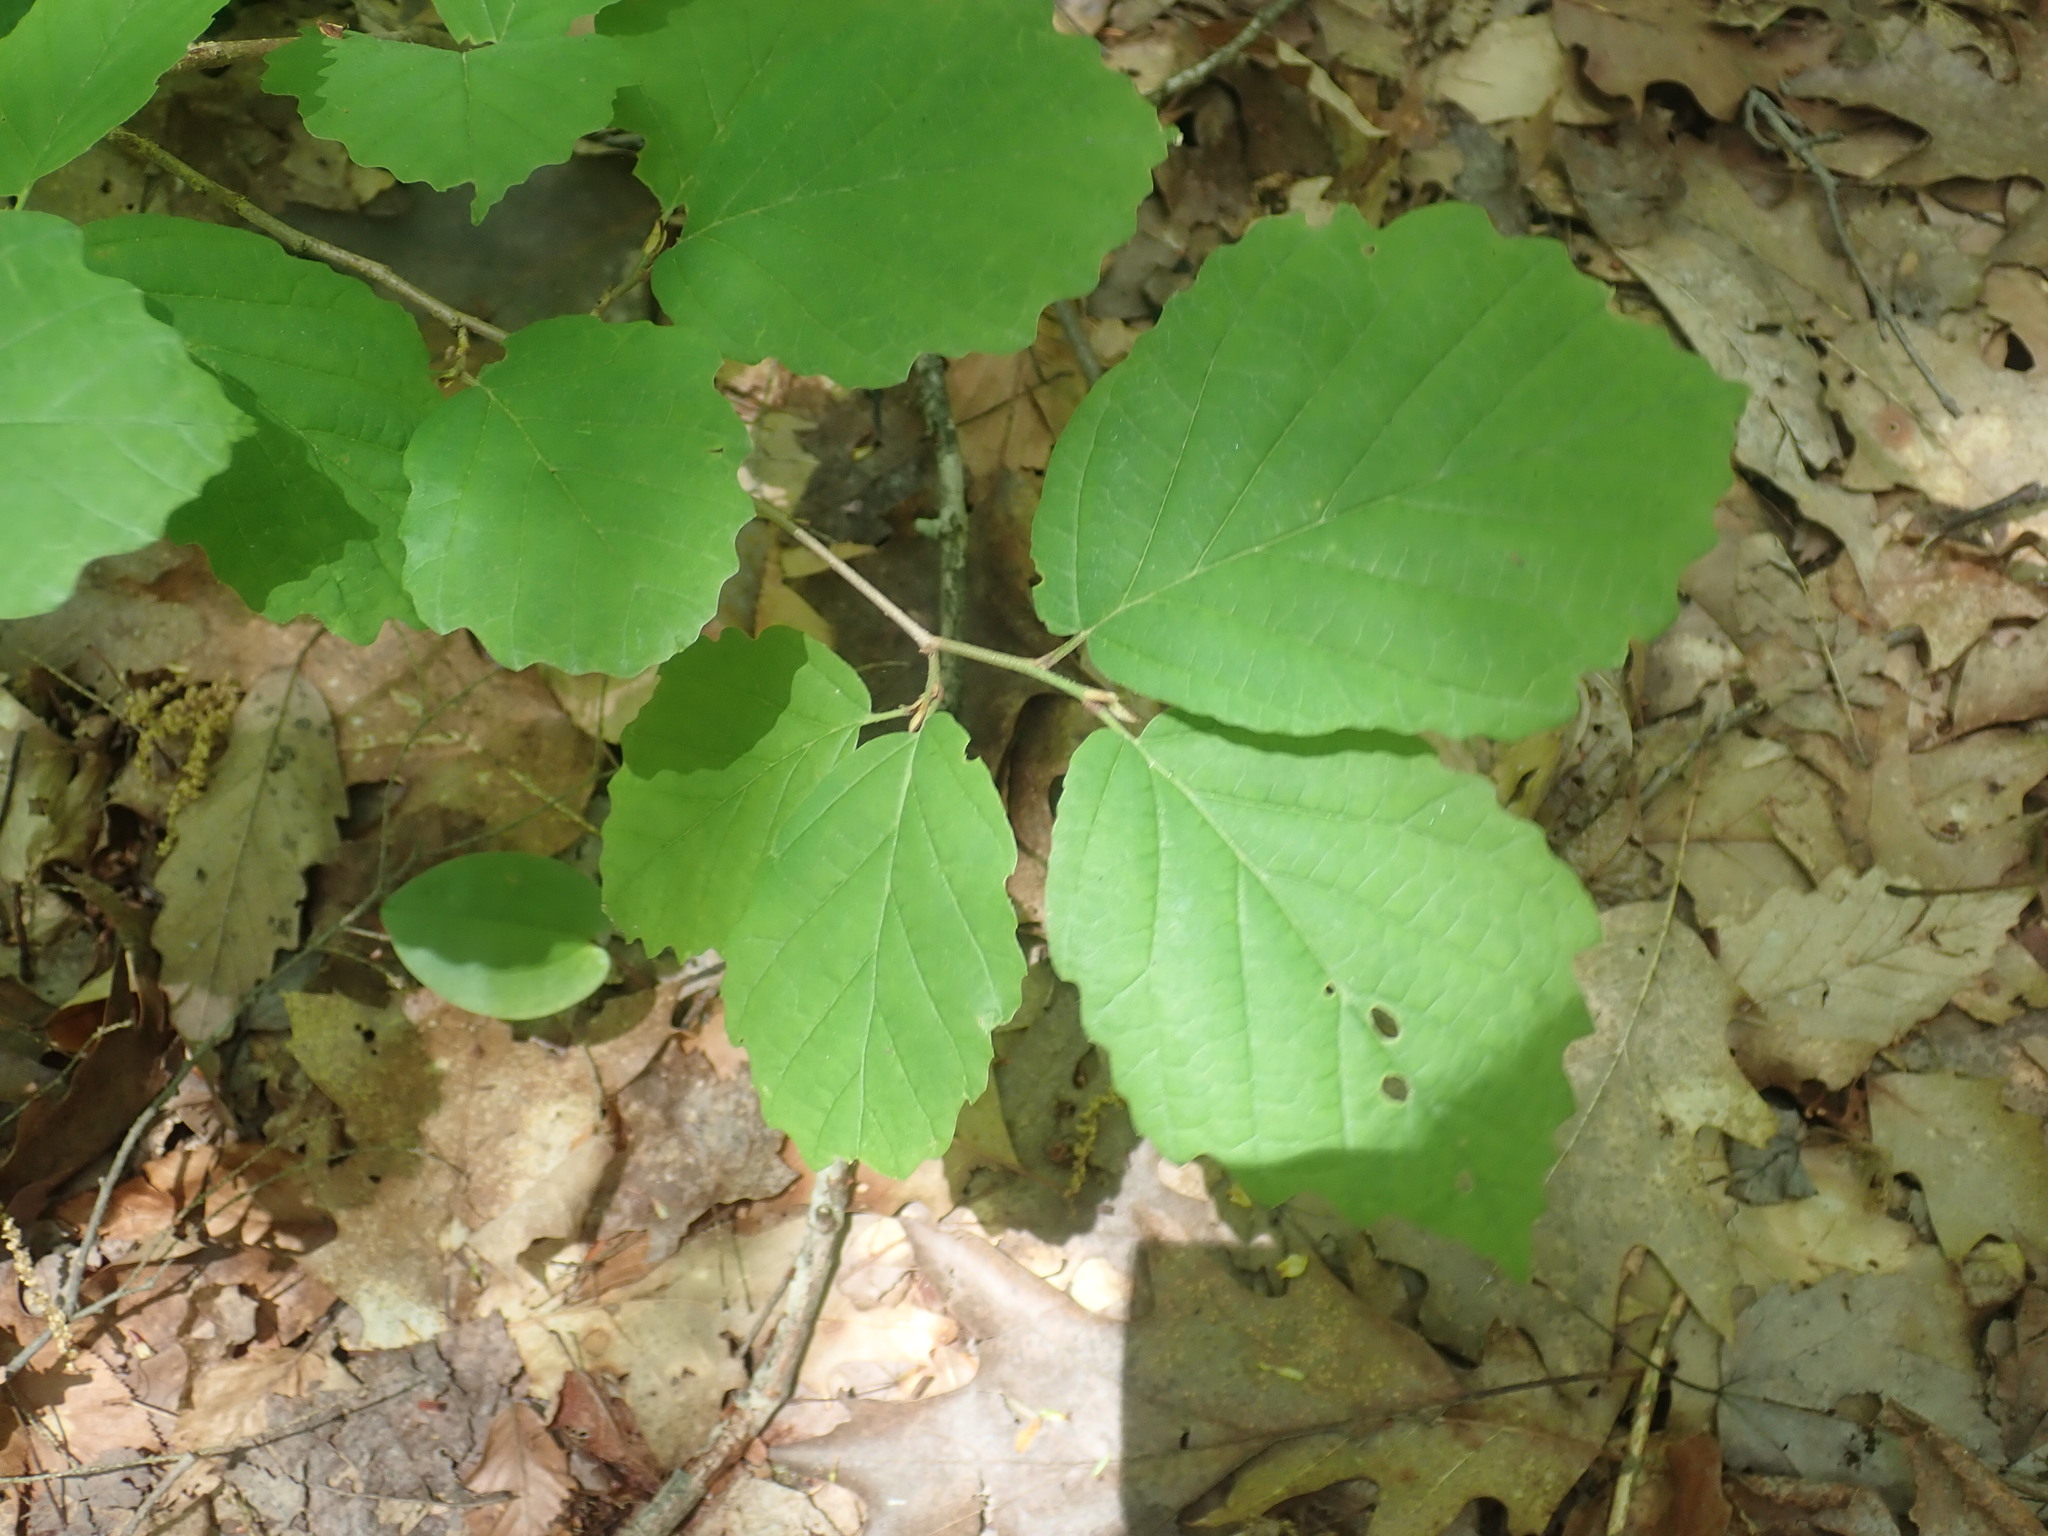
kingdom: Plantae
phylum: Tracheophyta
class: Magnoliopsida
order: Saxifragales
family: Hamamelidaceae
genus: Hamamelis
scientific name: Hamamelis virginiana
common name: Witch-hazel
